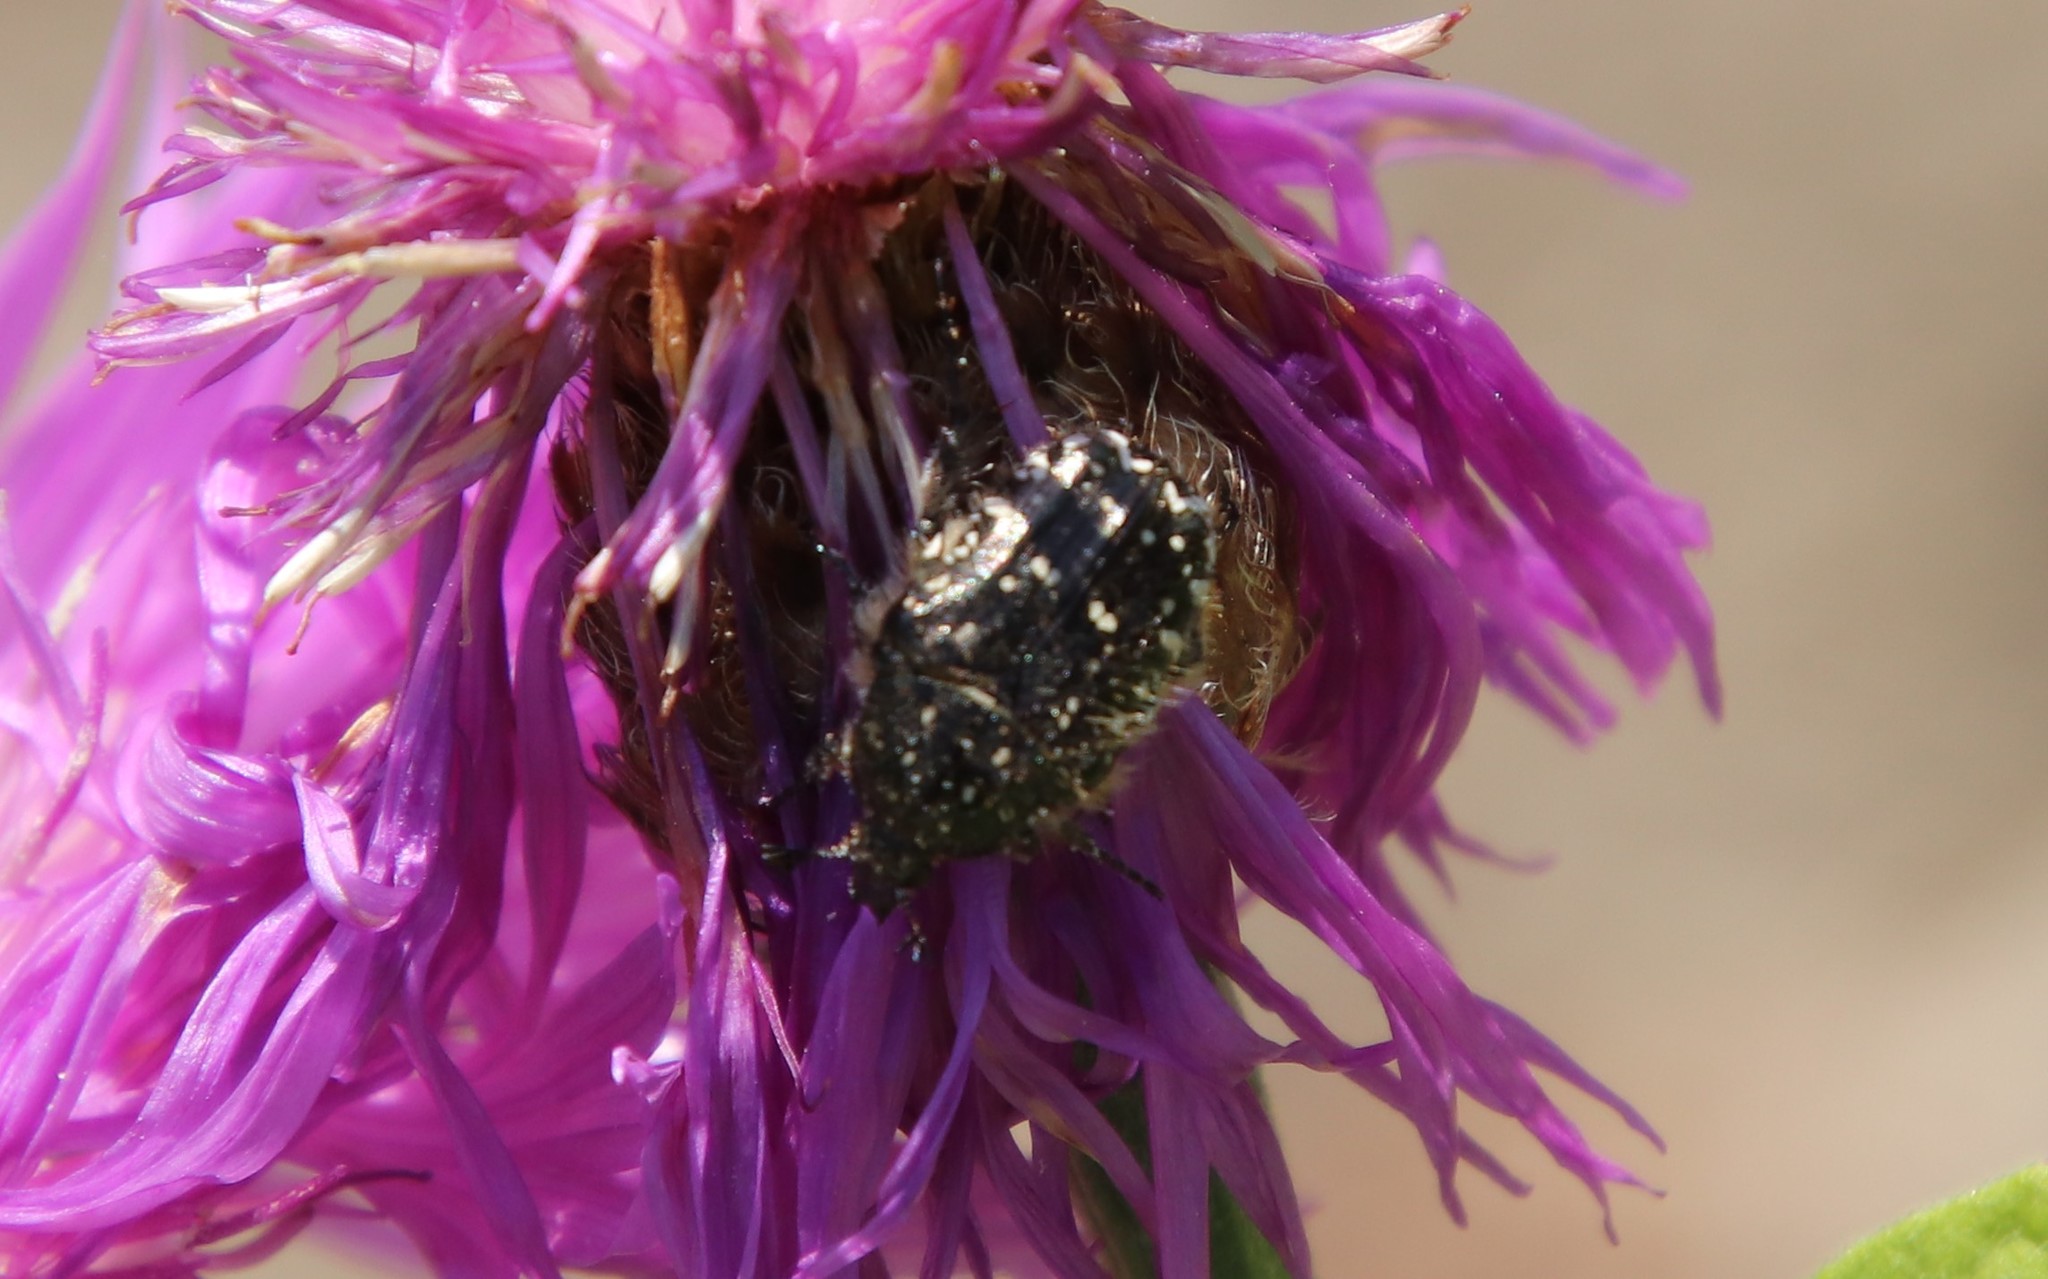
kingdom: Animalia
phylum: Arthropoda
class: Insecta
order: Coleoptera
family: Scarabaeidae
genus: Oxythyrea
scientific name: Oxythyrea funesta
